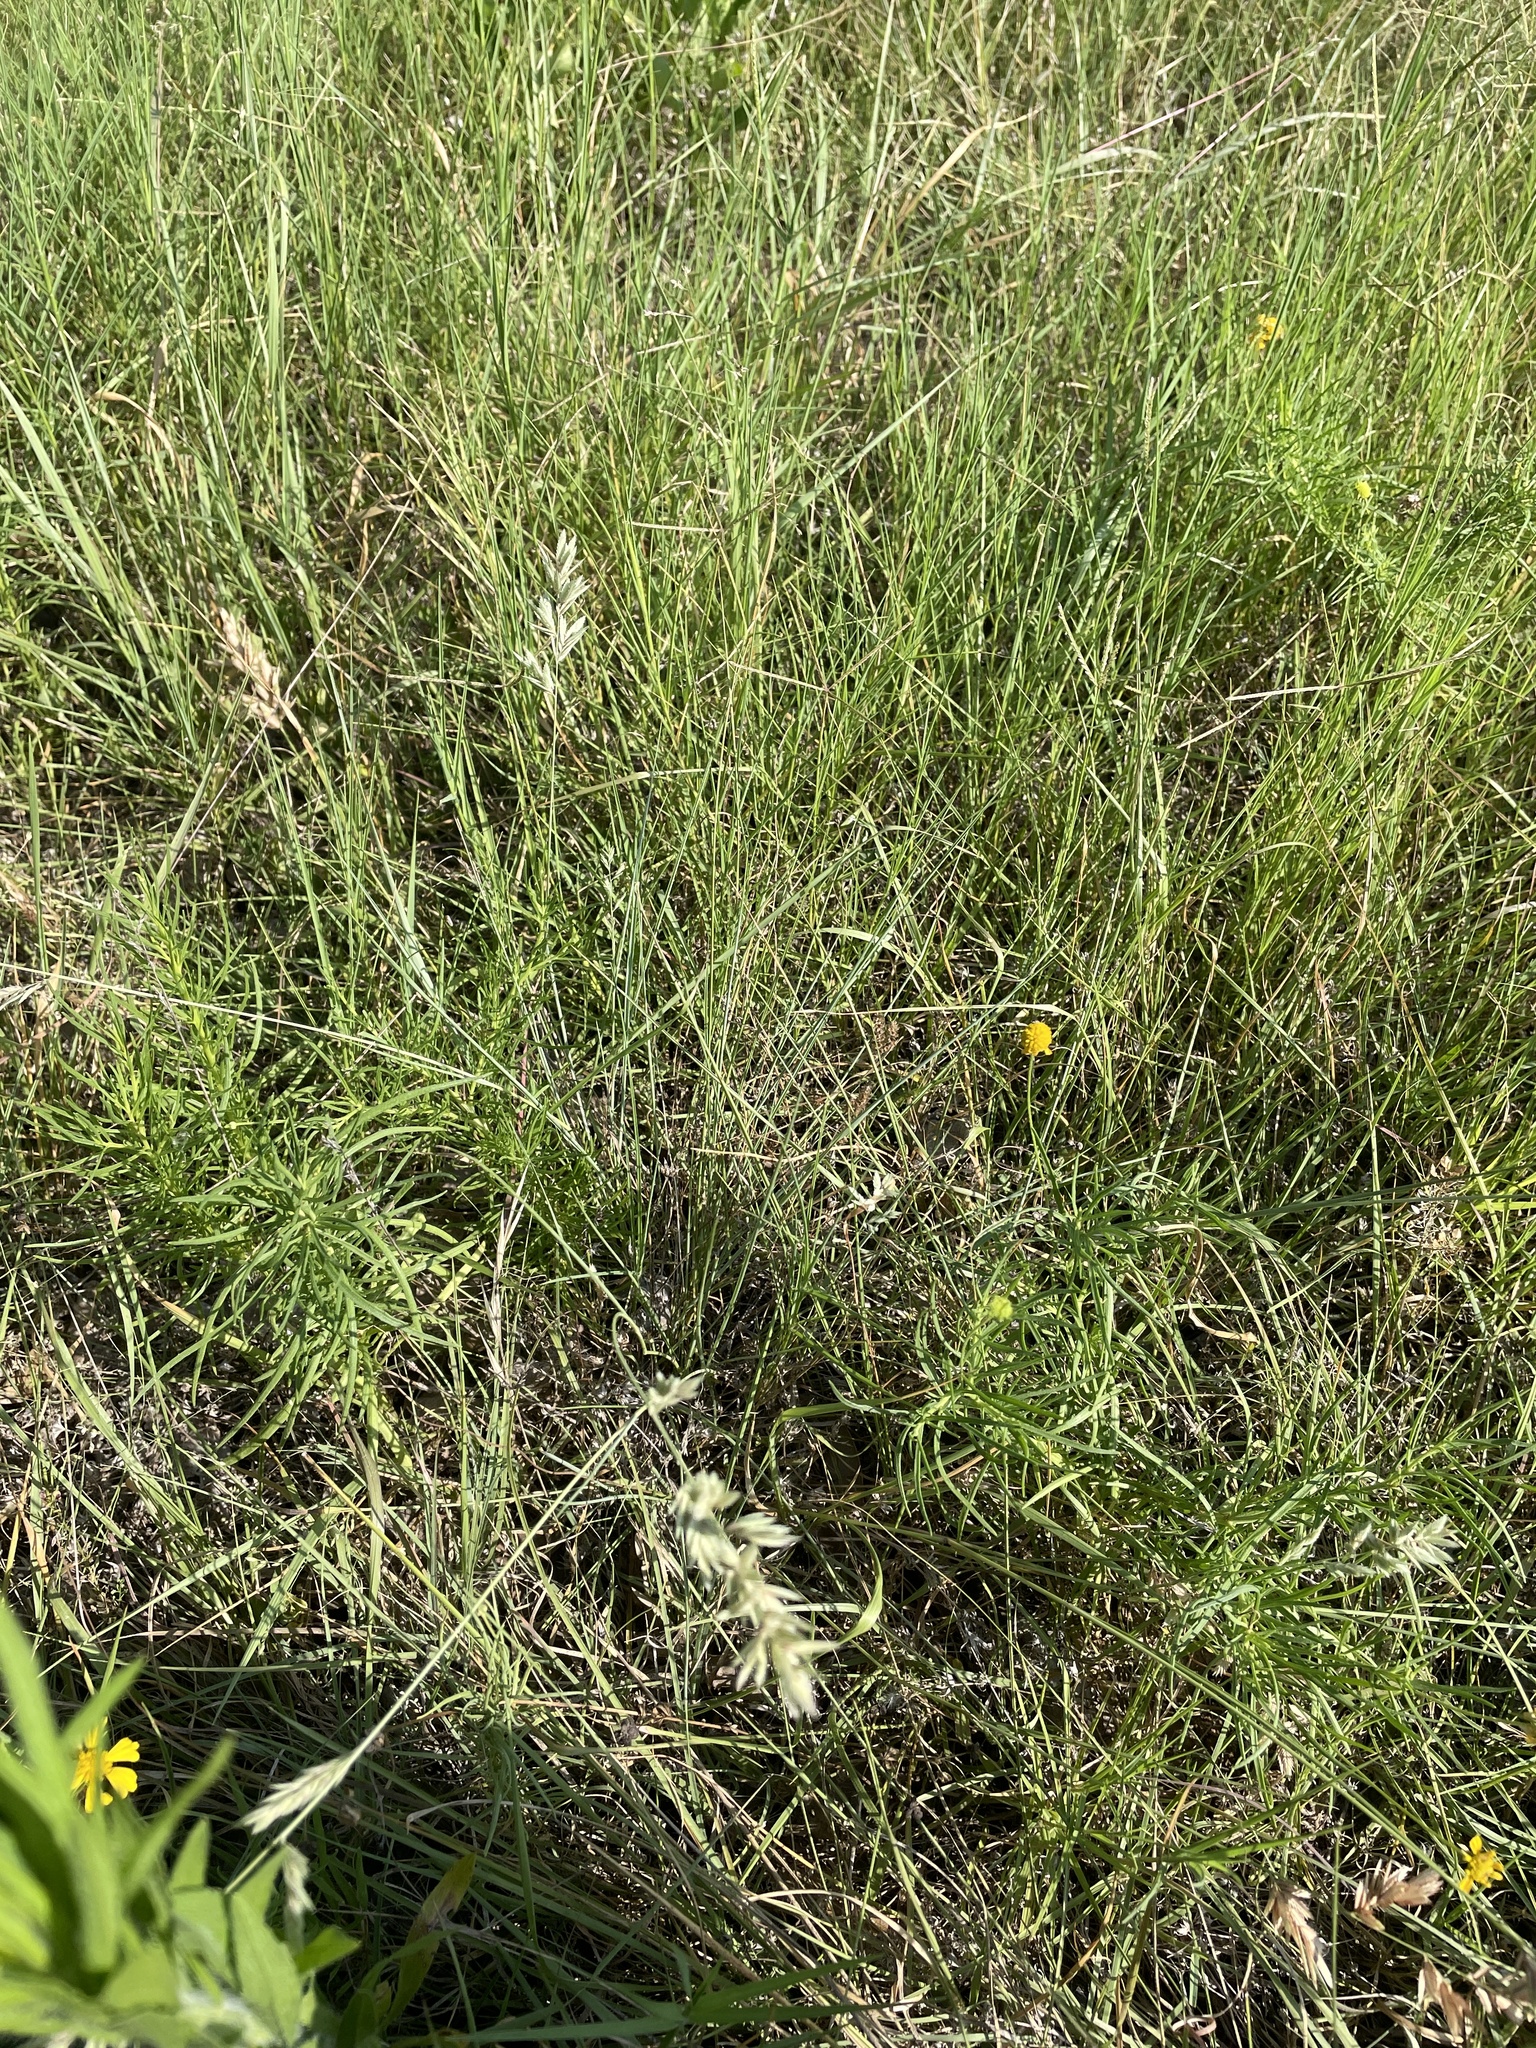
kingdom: Plantae
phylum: Tracheophyta
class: Liliopsida
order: Poales
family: Poaceae
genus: Eragrostis
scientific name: Eragrostis secundiflora
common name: Red love grass
